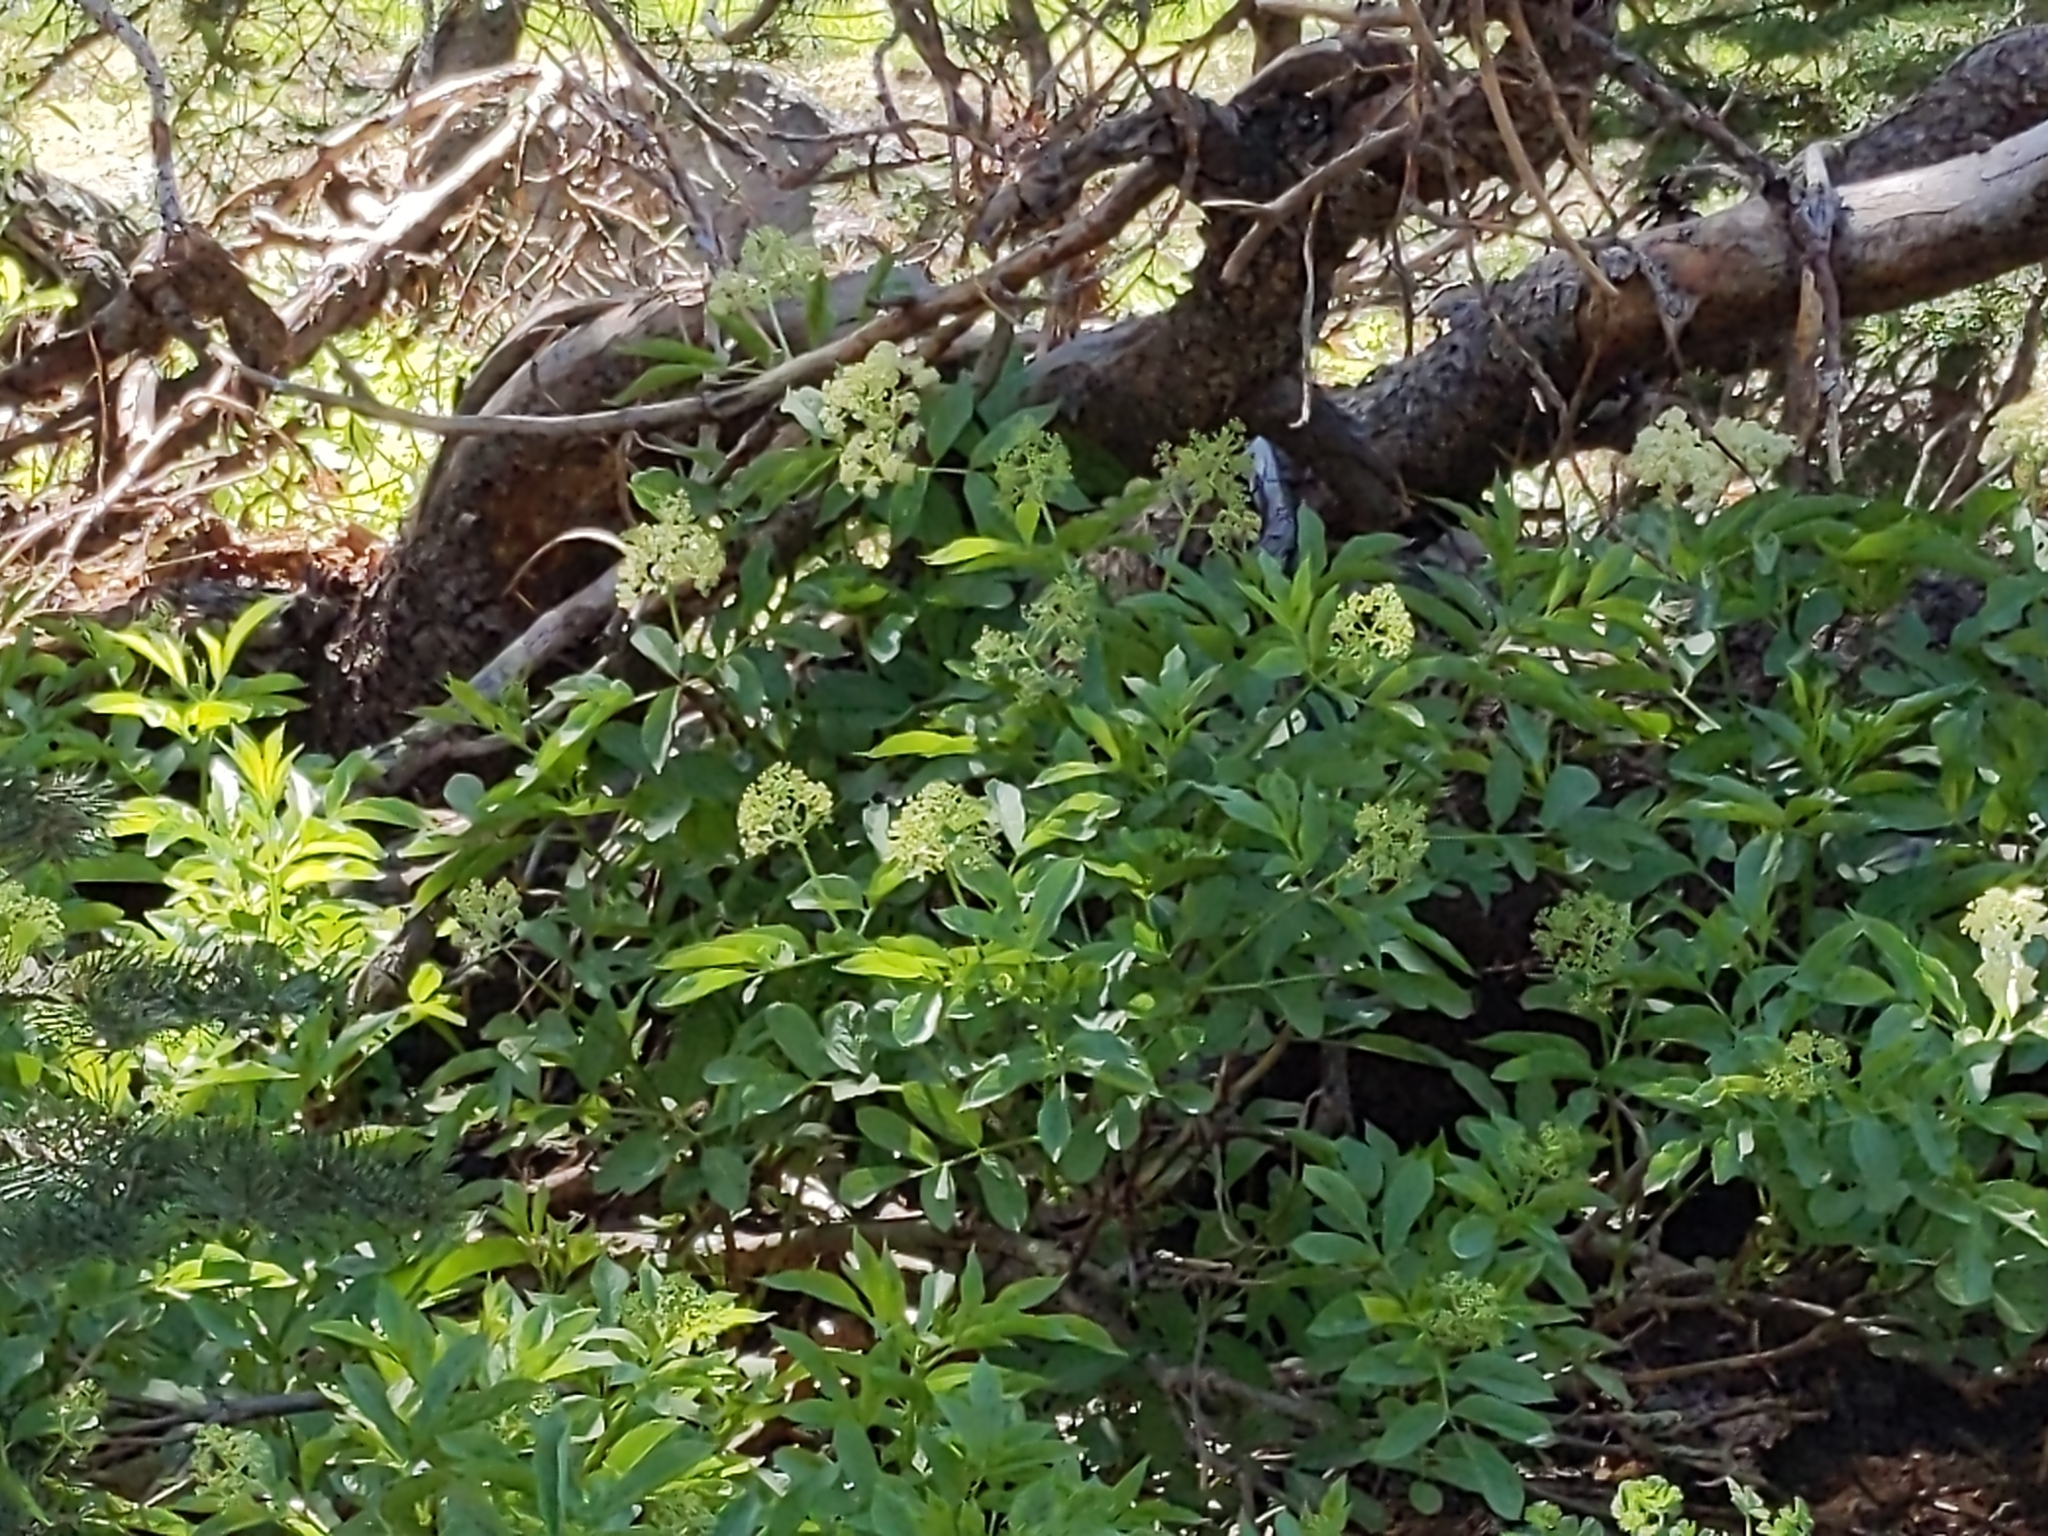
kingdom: Plantae
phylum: Tracheophyta
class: Magnoliopsida
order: Dipsacales
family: Viburnaceae
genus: Sambucus
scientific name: Sambucus racemosa
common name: Red-berried elder
